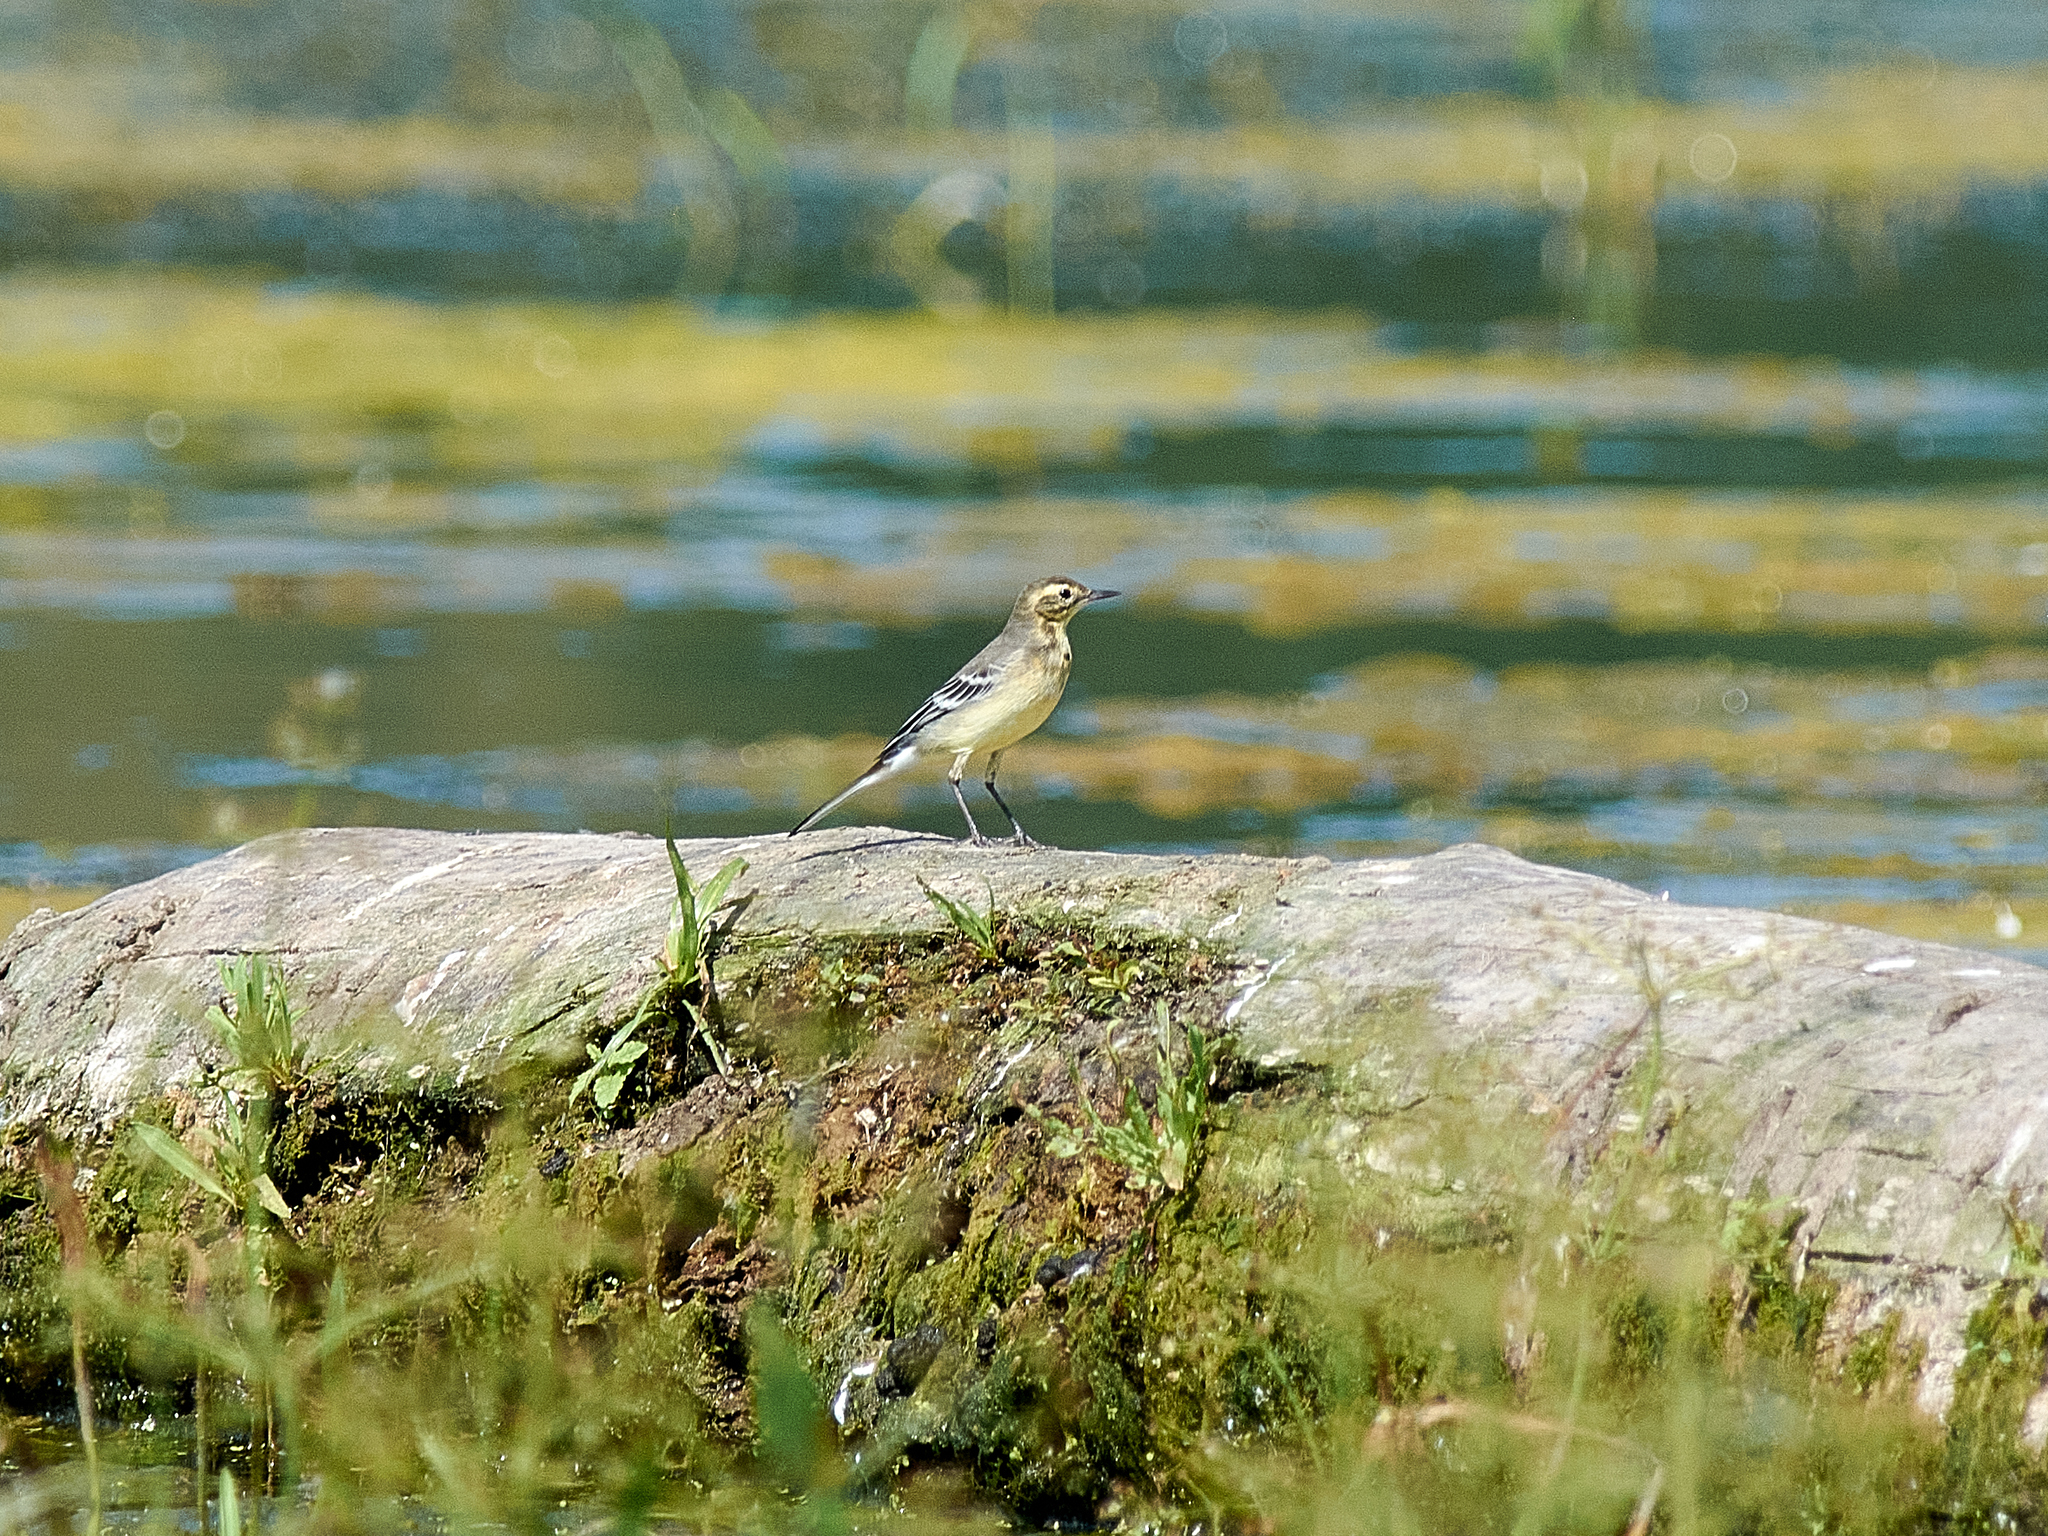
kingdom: Animalia
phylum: Chordata
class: Aves
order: Passeriformes
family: Motacillidae
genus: Motacilla
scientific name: Motacilla citreola
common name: Citrine wagtail
